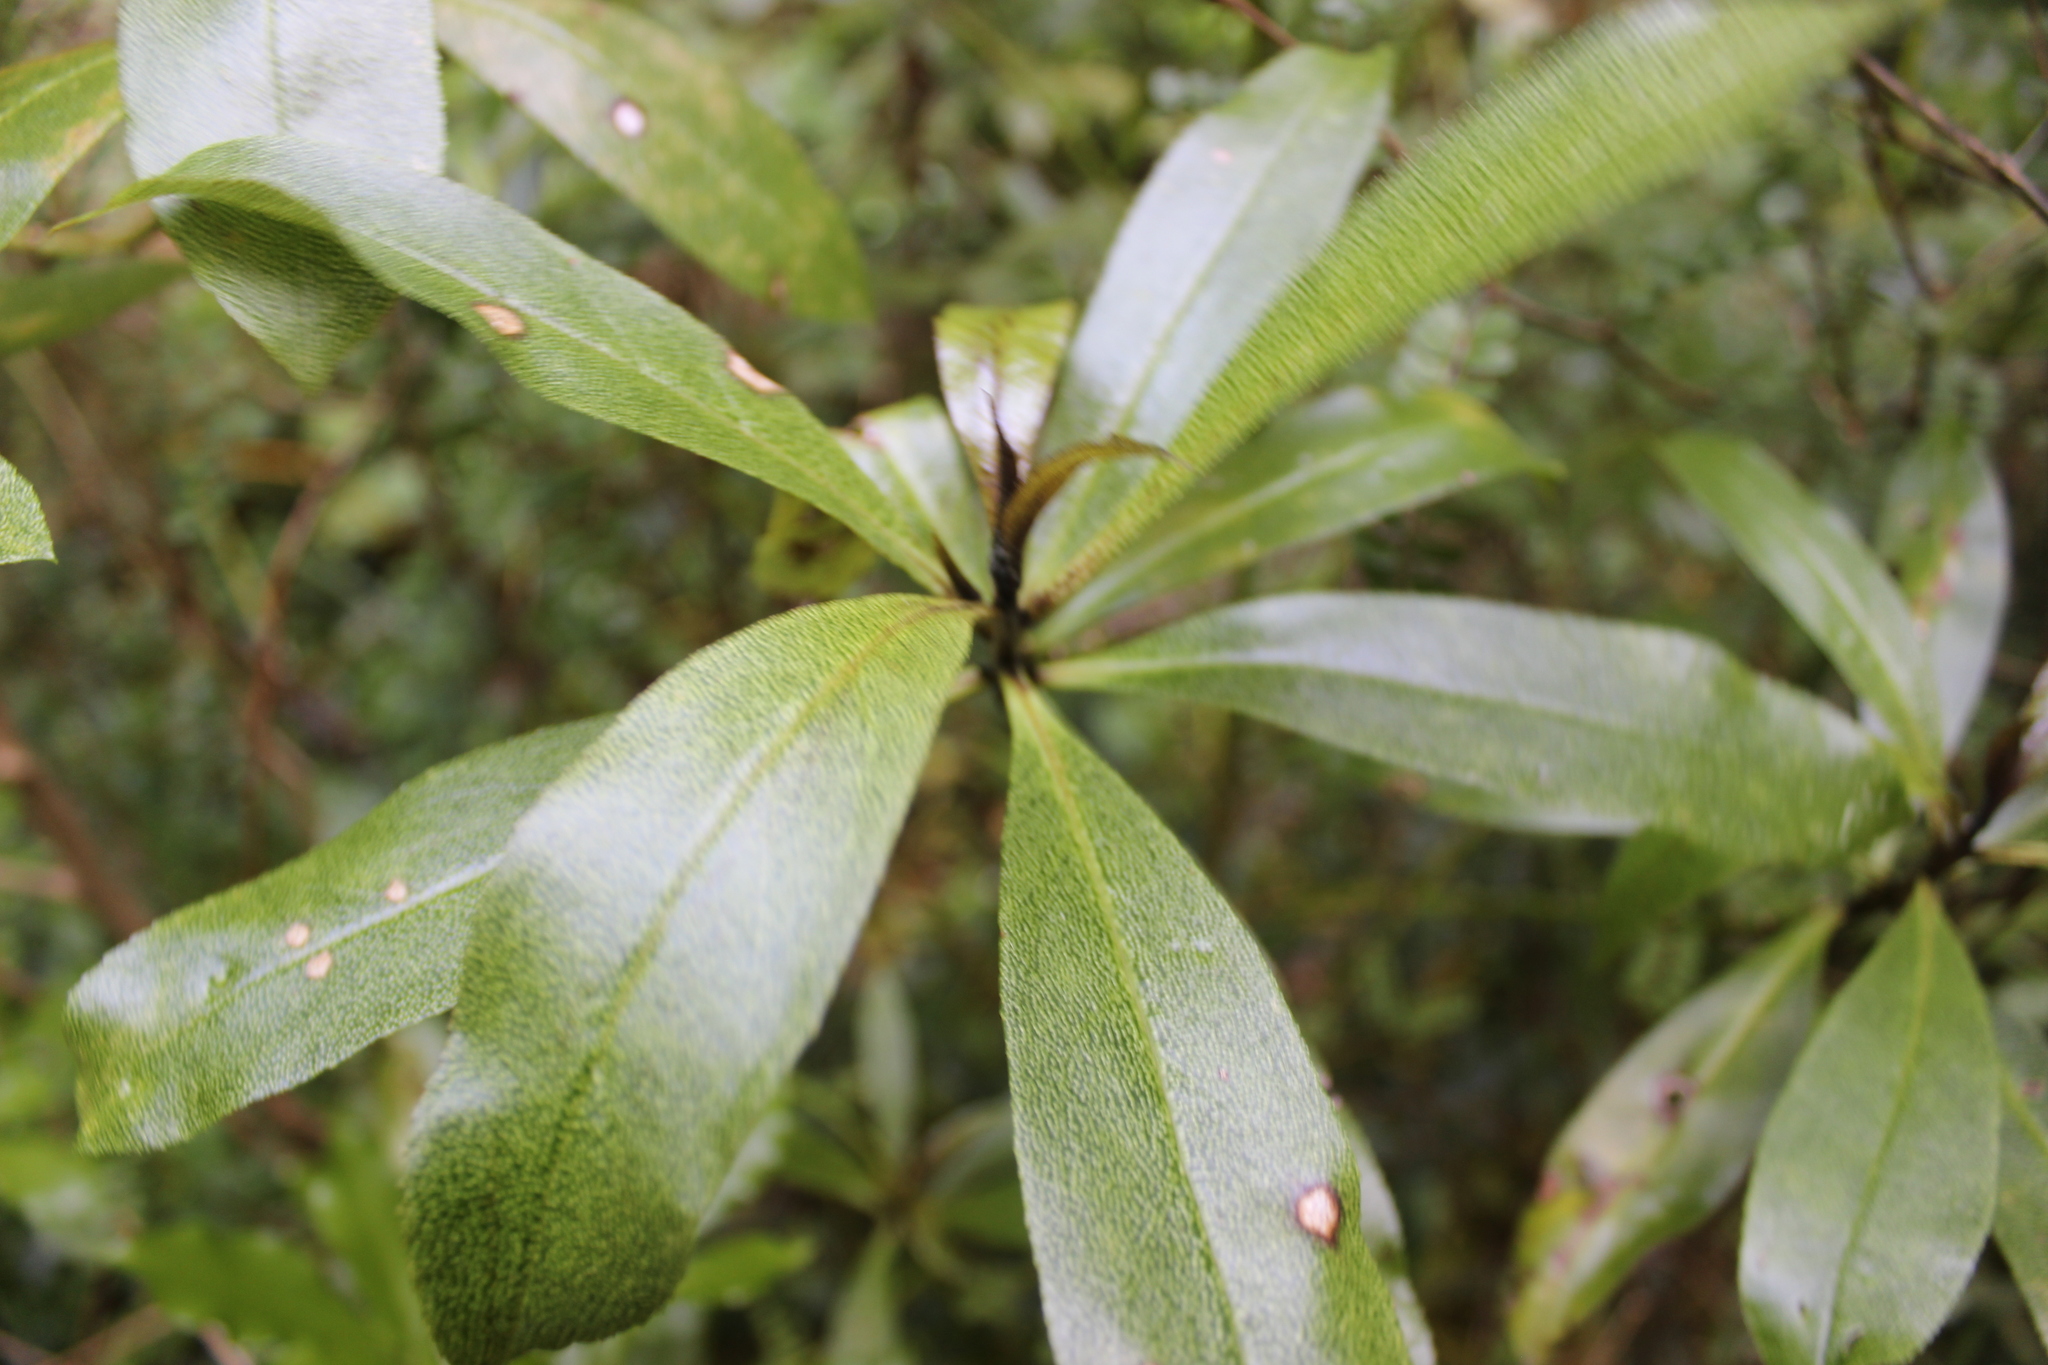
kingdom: Plantae
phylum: Tracheophyta
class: Magnoliopsida
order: Lamiales
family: Scrophulariaceae
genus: Myoporum
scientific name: Myoporum laetum
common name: Ngaio tree
